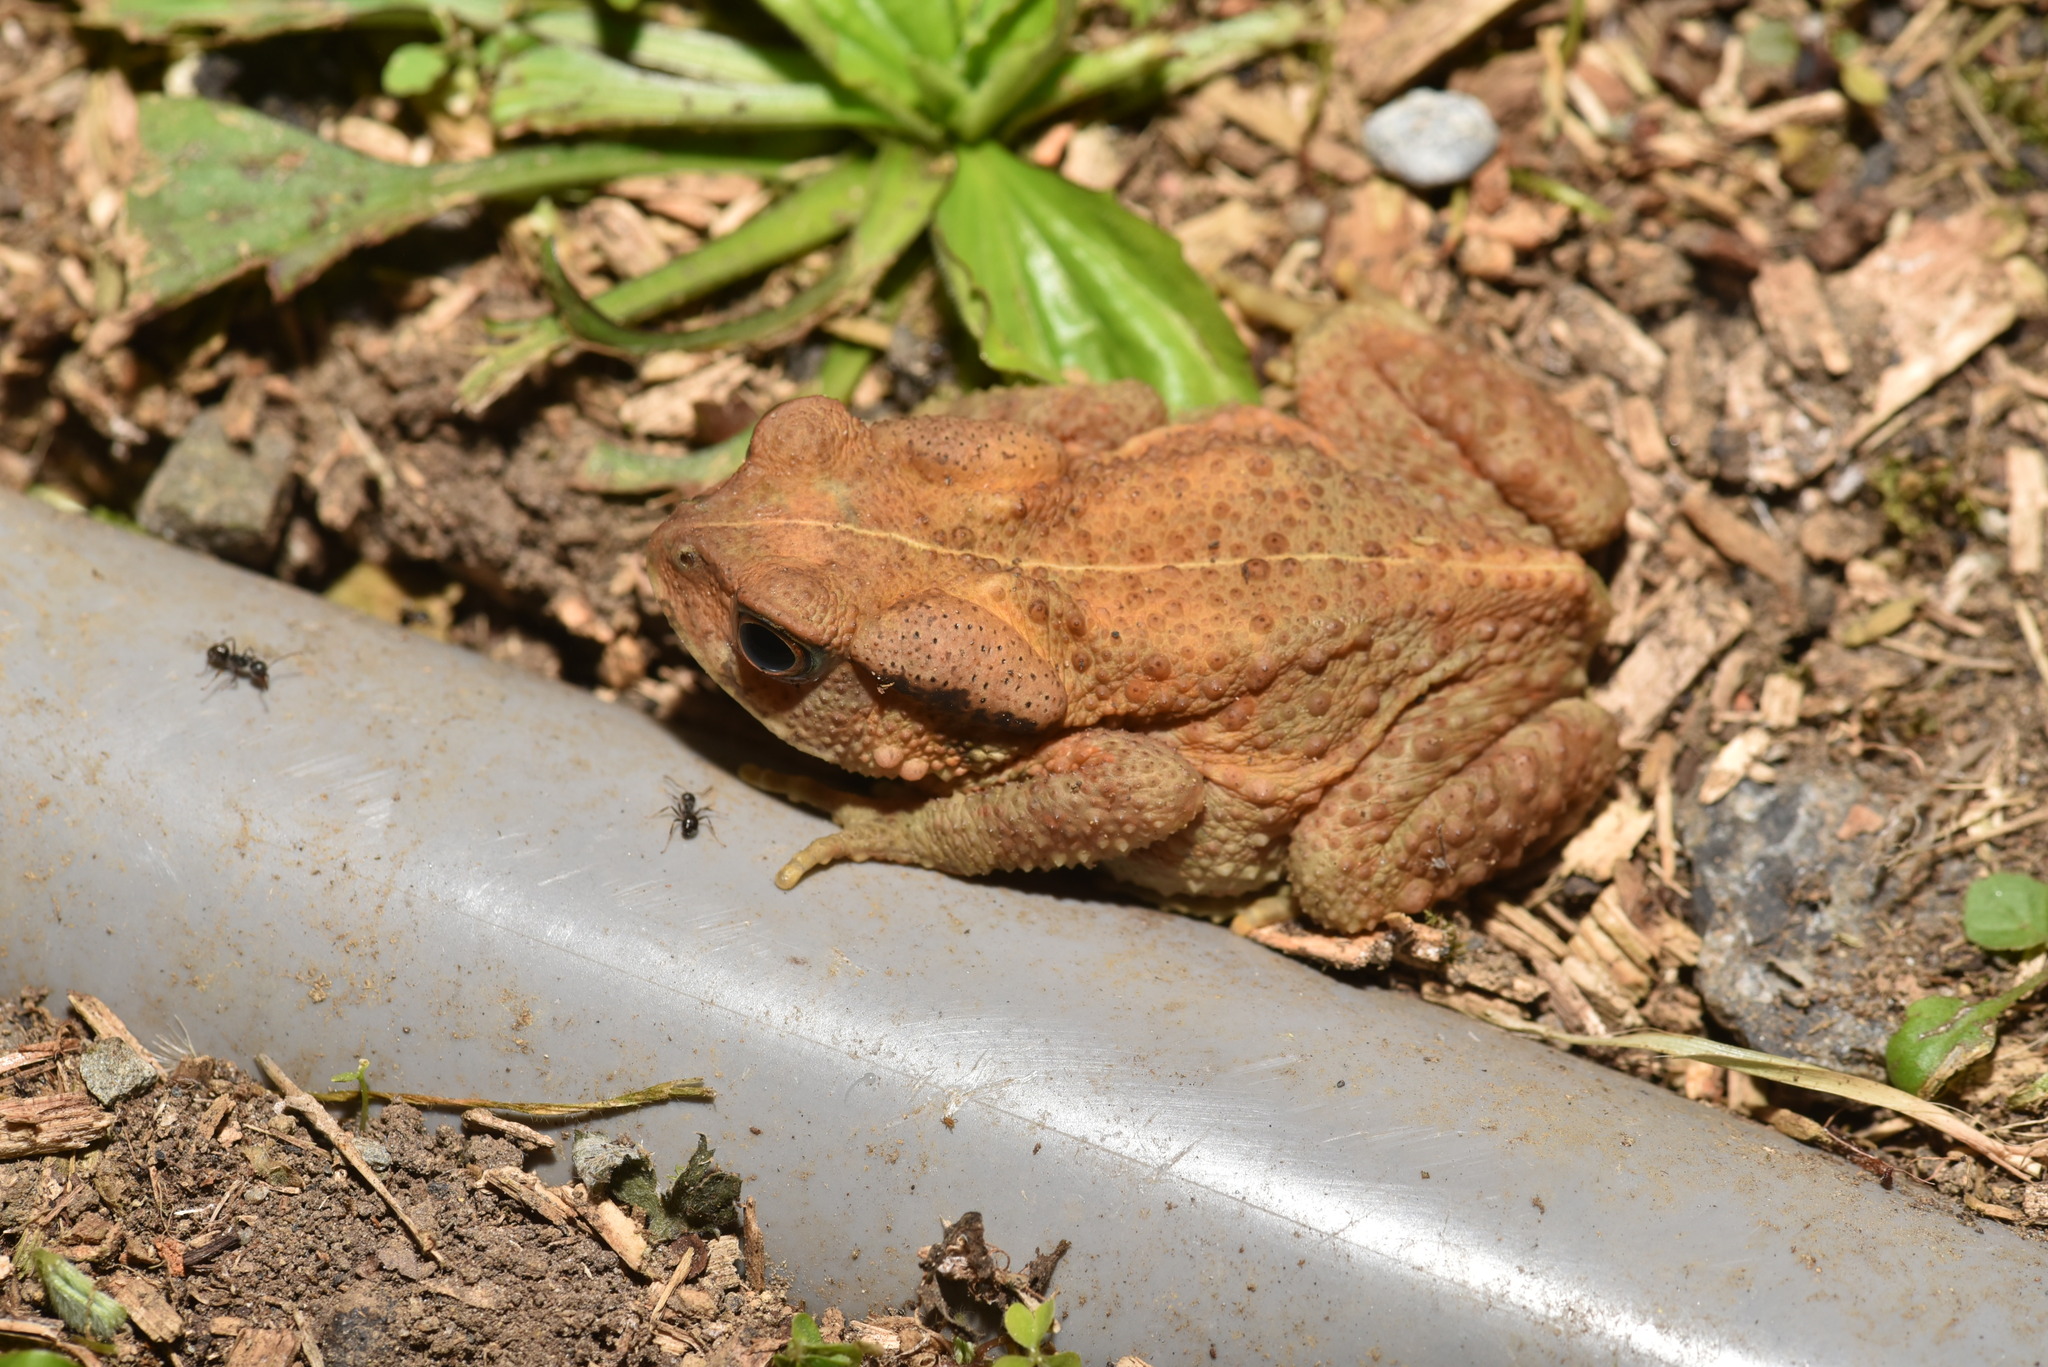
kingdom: Animalia
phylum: Chordata
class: Amphibia
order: Anura
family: Bufonidae
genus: Bufo
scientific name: Bufo bankorensis
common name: Bankor toad
